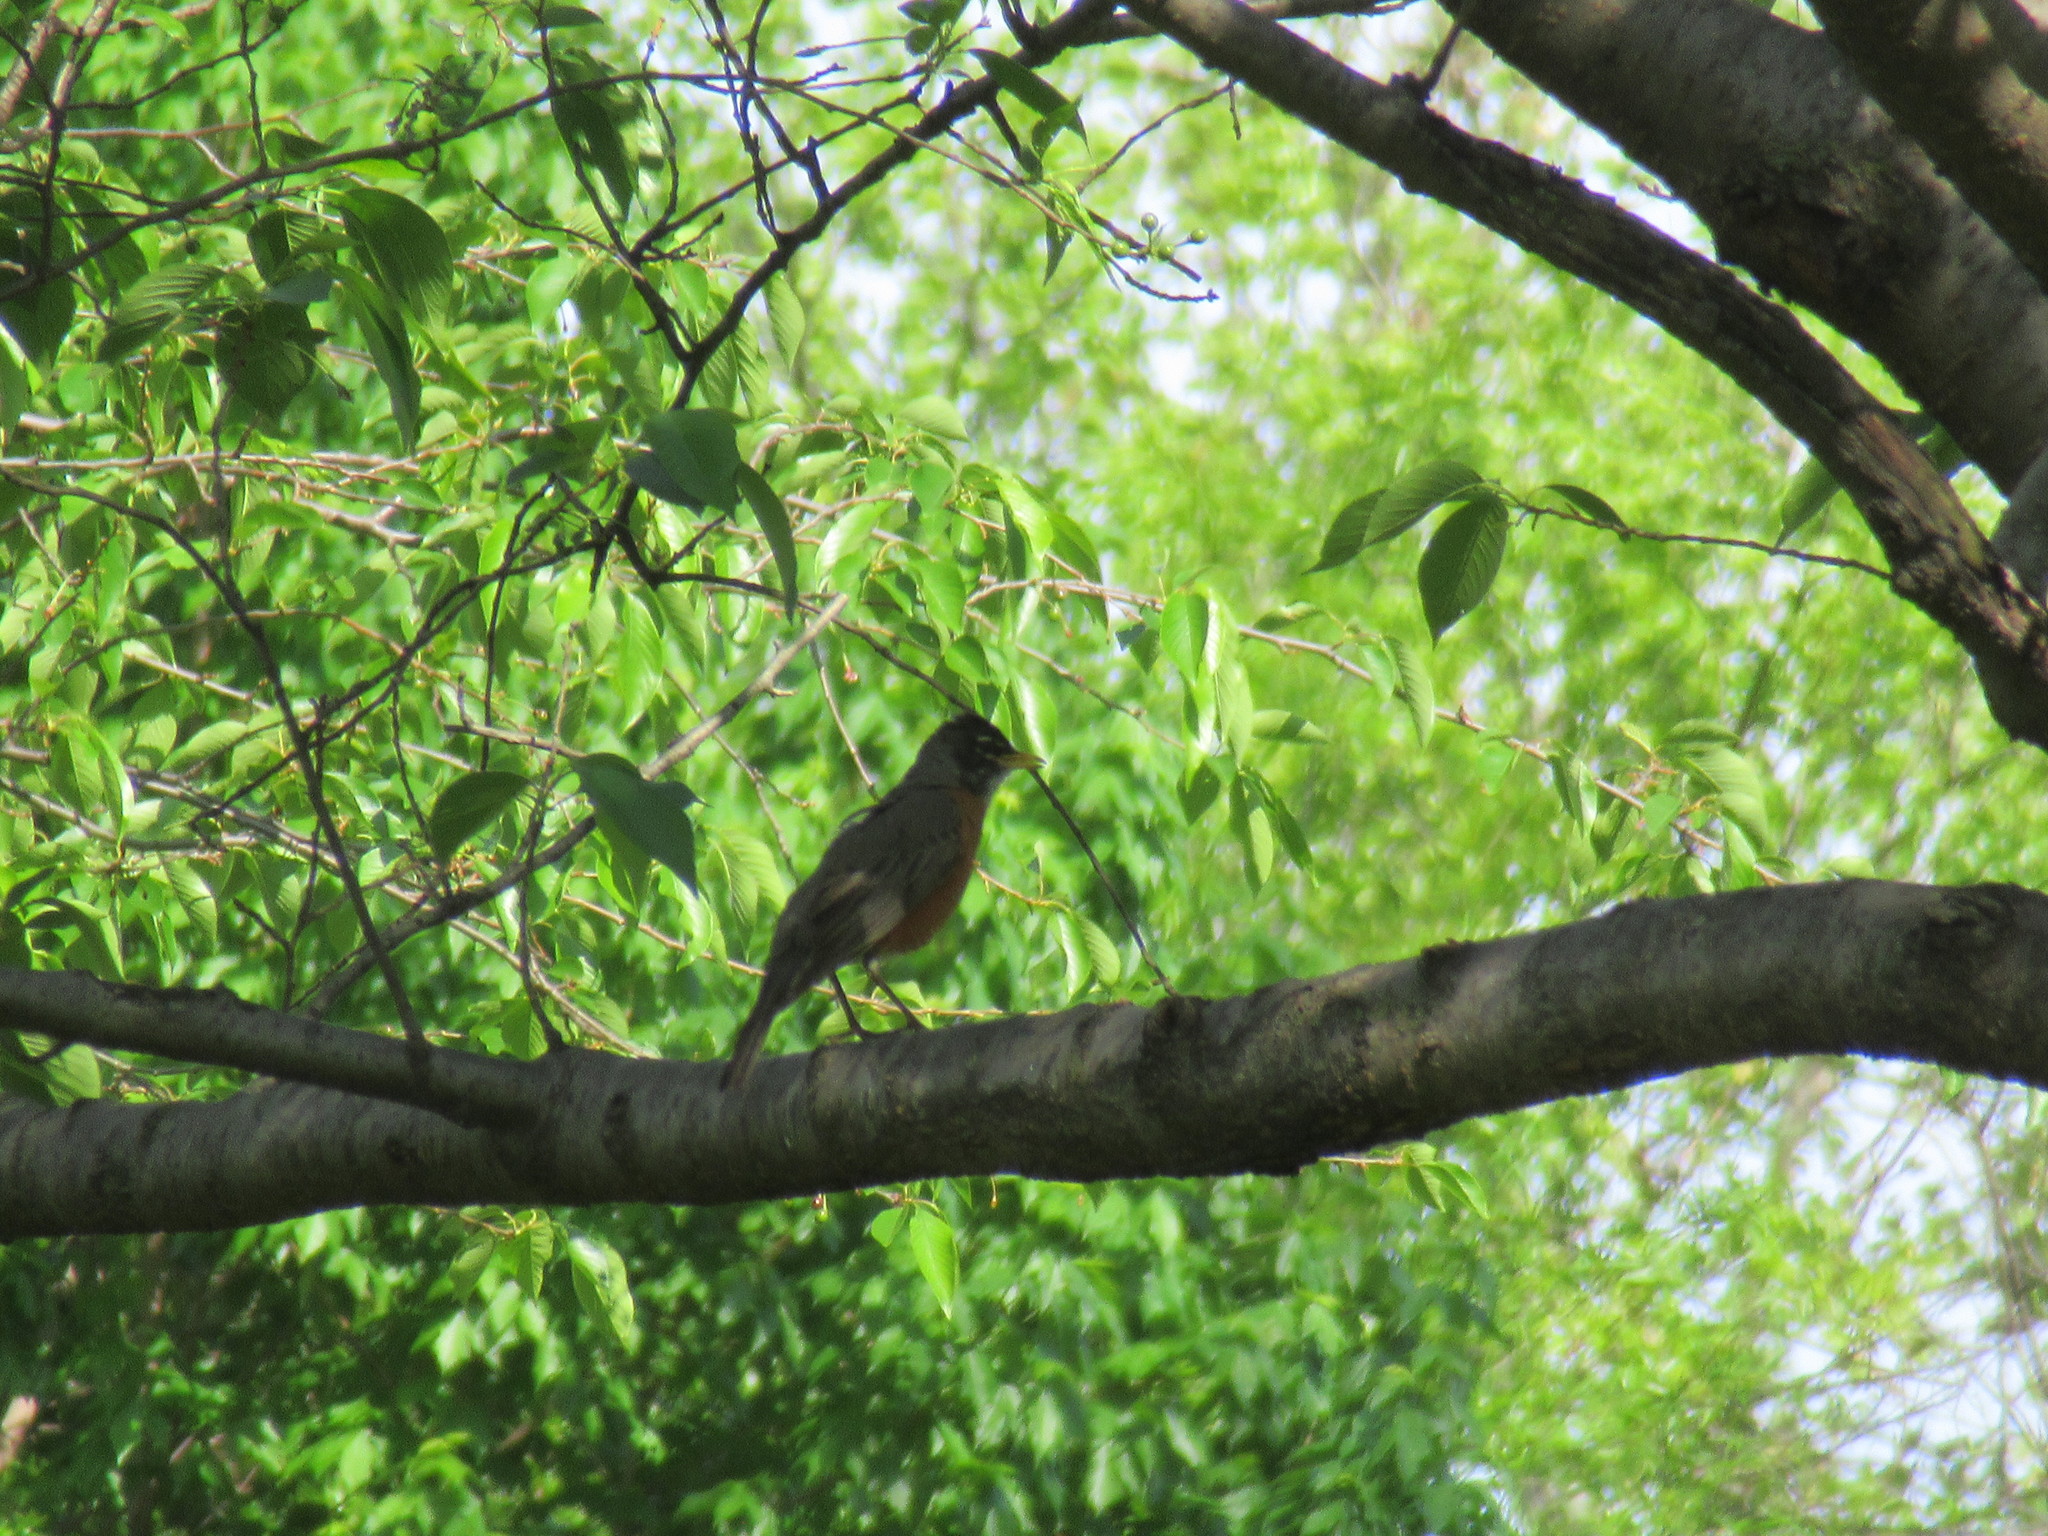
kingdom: Animalia
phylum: Chordata
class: Aves
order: Passeriformes
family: Turdidae
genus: Turdus
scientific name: Turdus migratorius
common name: American robin
